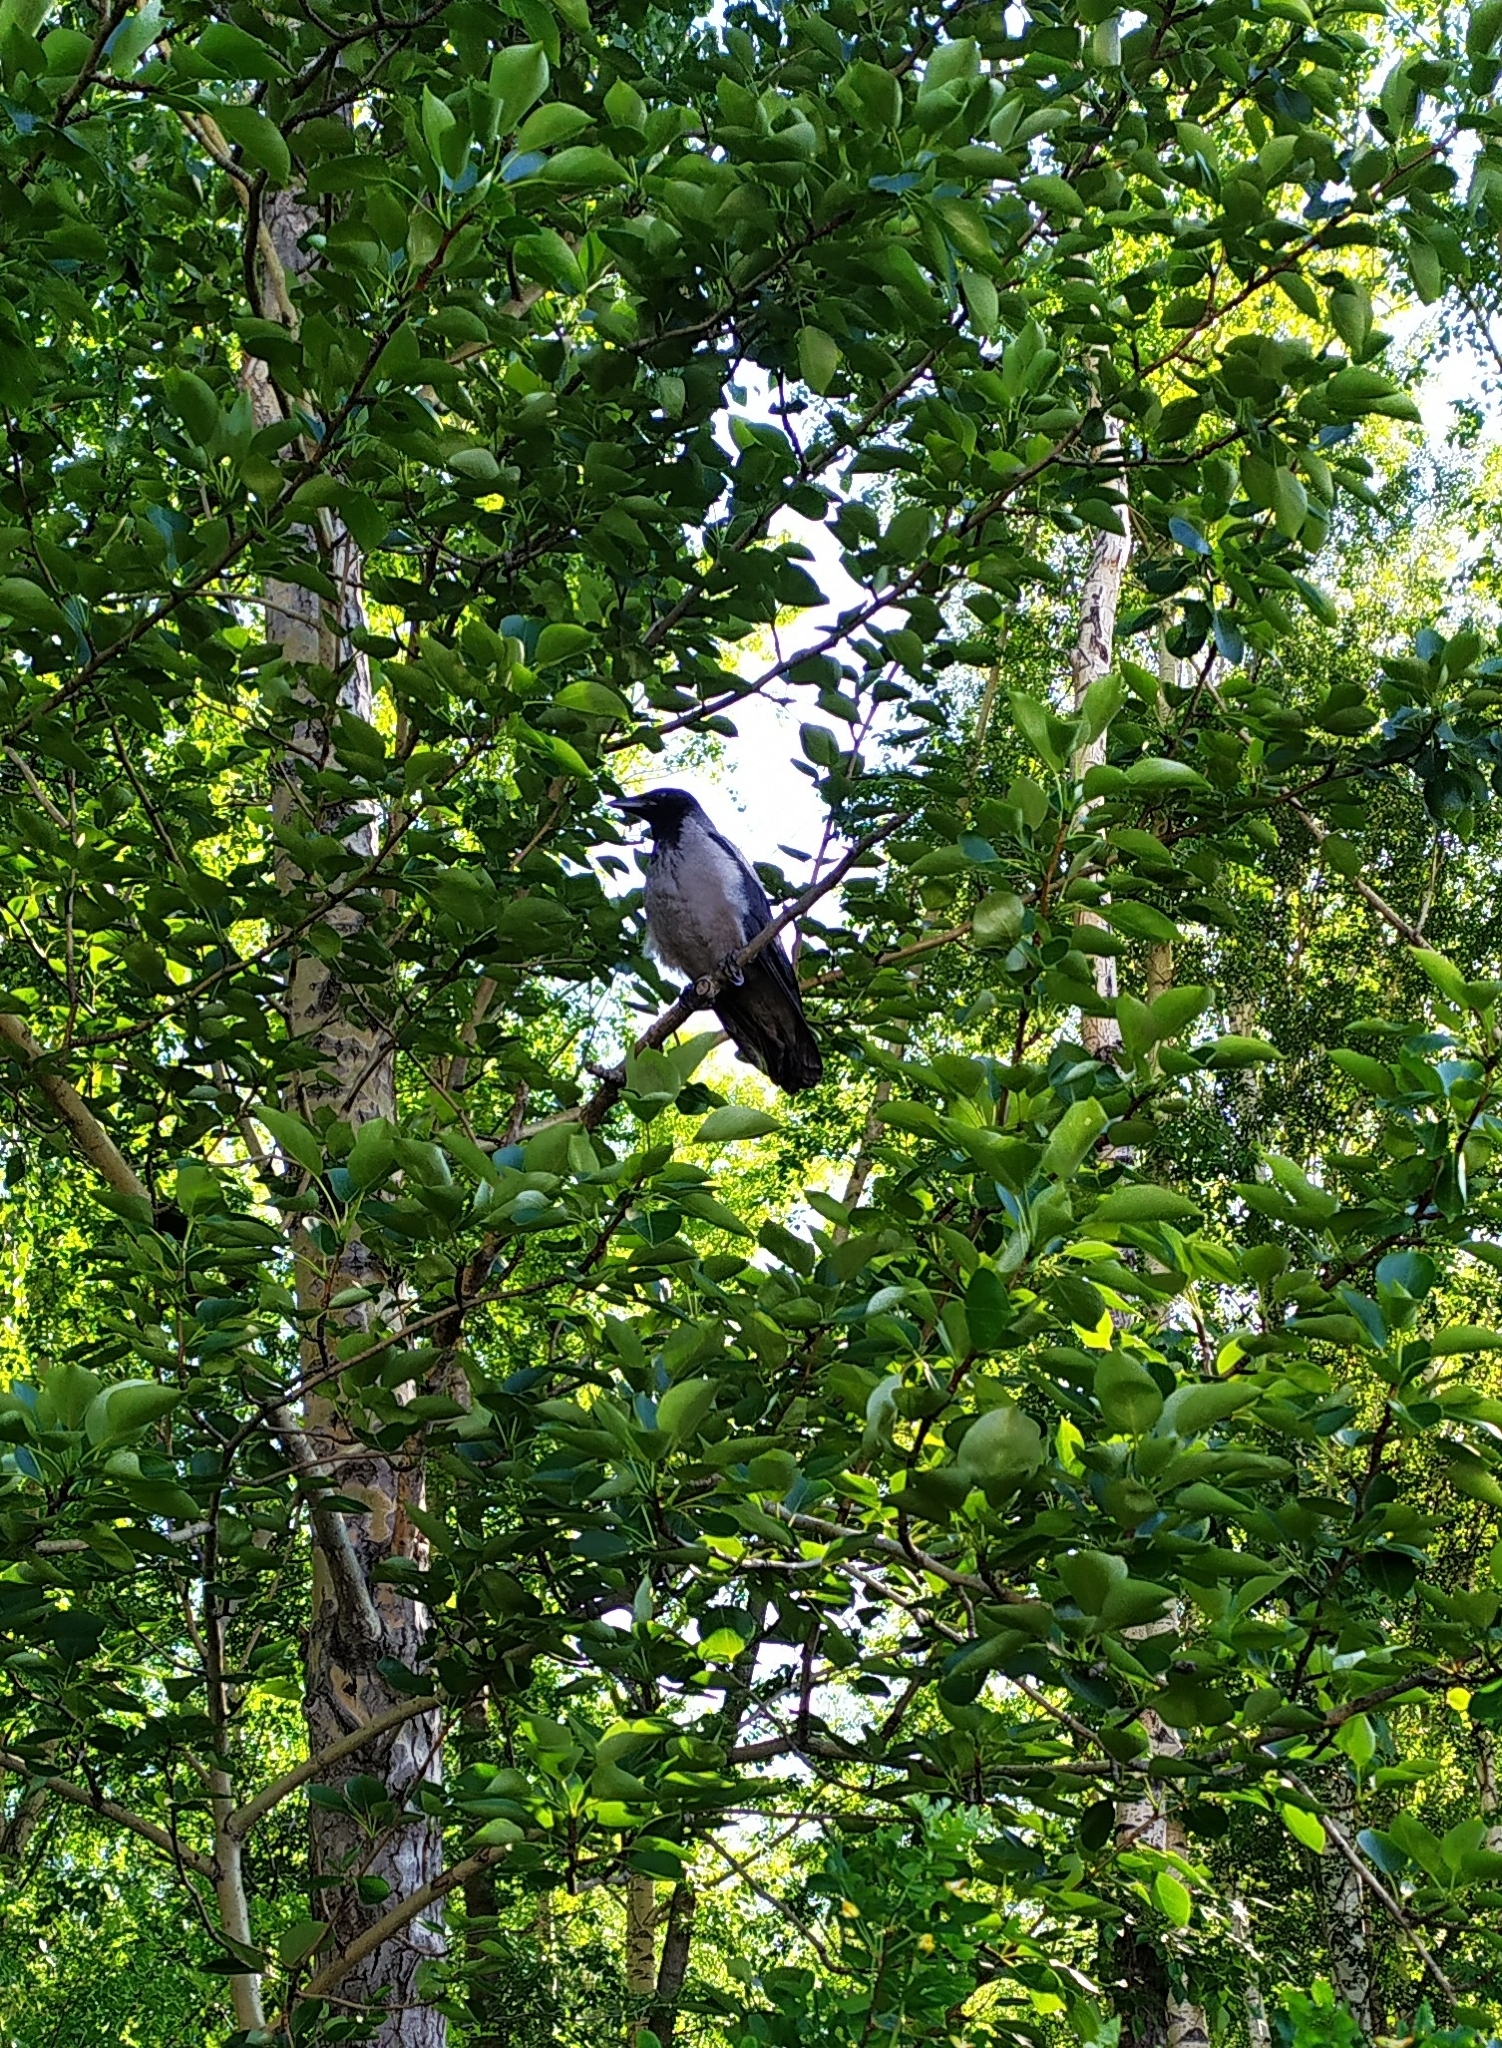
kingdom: Animalia
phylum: Chordata
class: Aves
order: Passeriformes
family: Corvidae
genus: Corvus
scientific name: Corvus cornix
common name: Hooded crow
